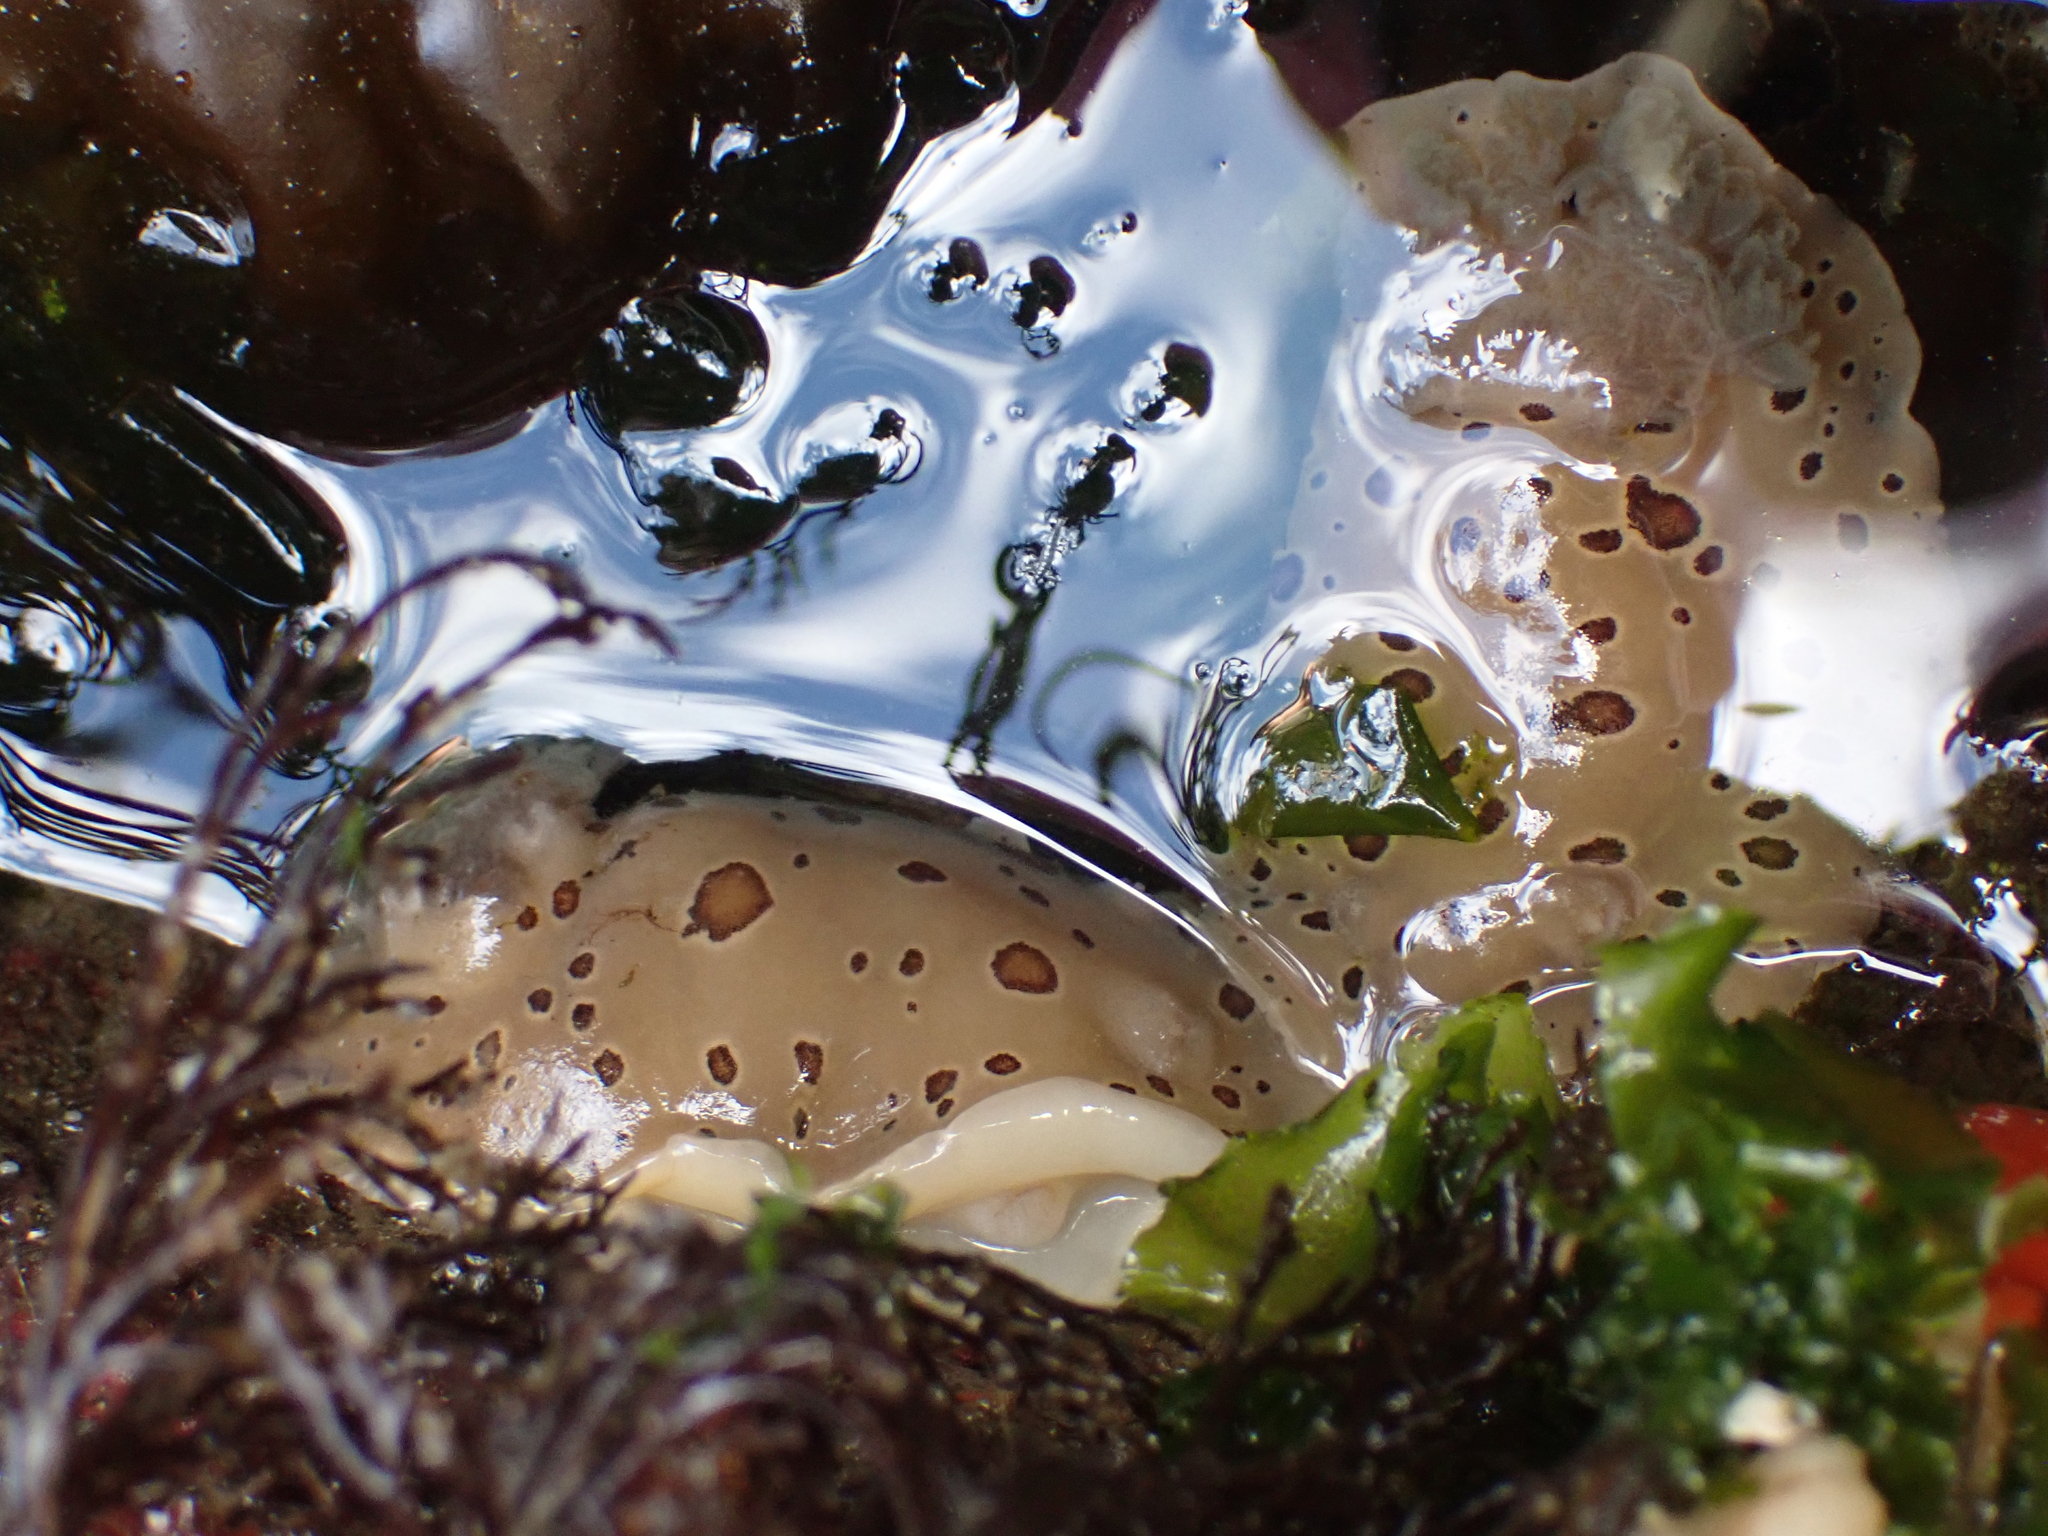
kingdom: Animalia
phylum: Mollusca
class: Gastropoda
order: Nudibranchia
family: Discodorididae
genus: Diaulula
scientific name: Diaulula odonoghuei
